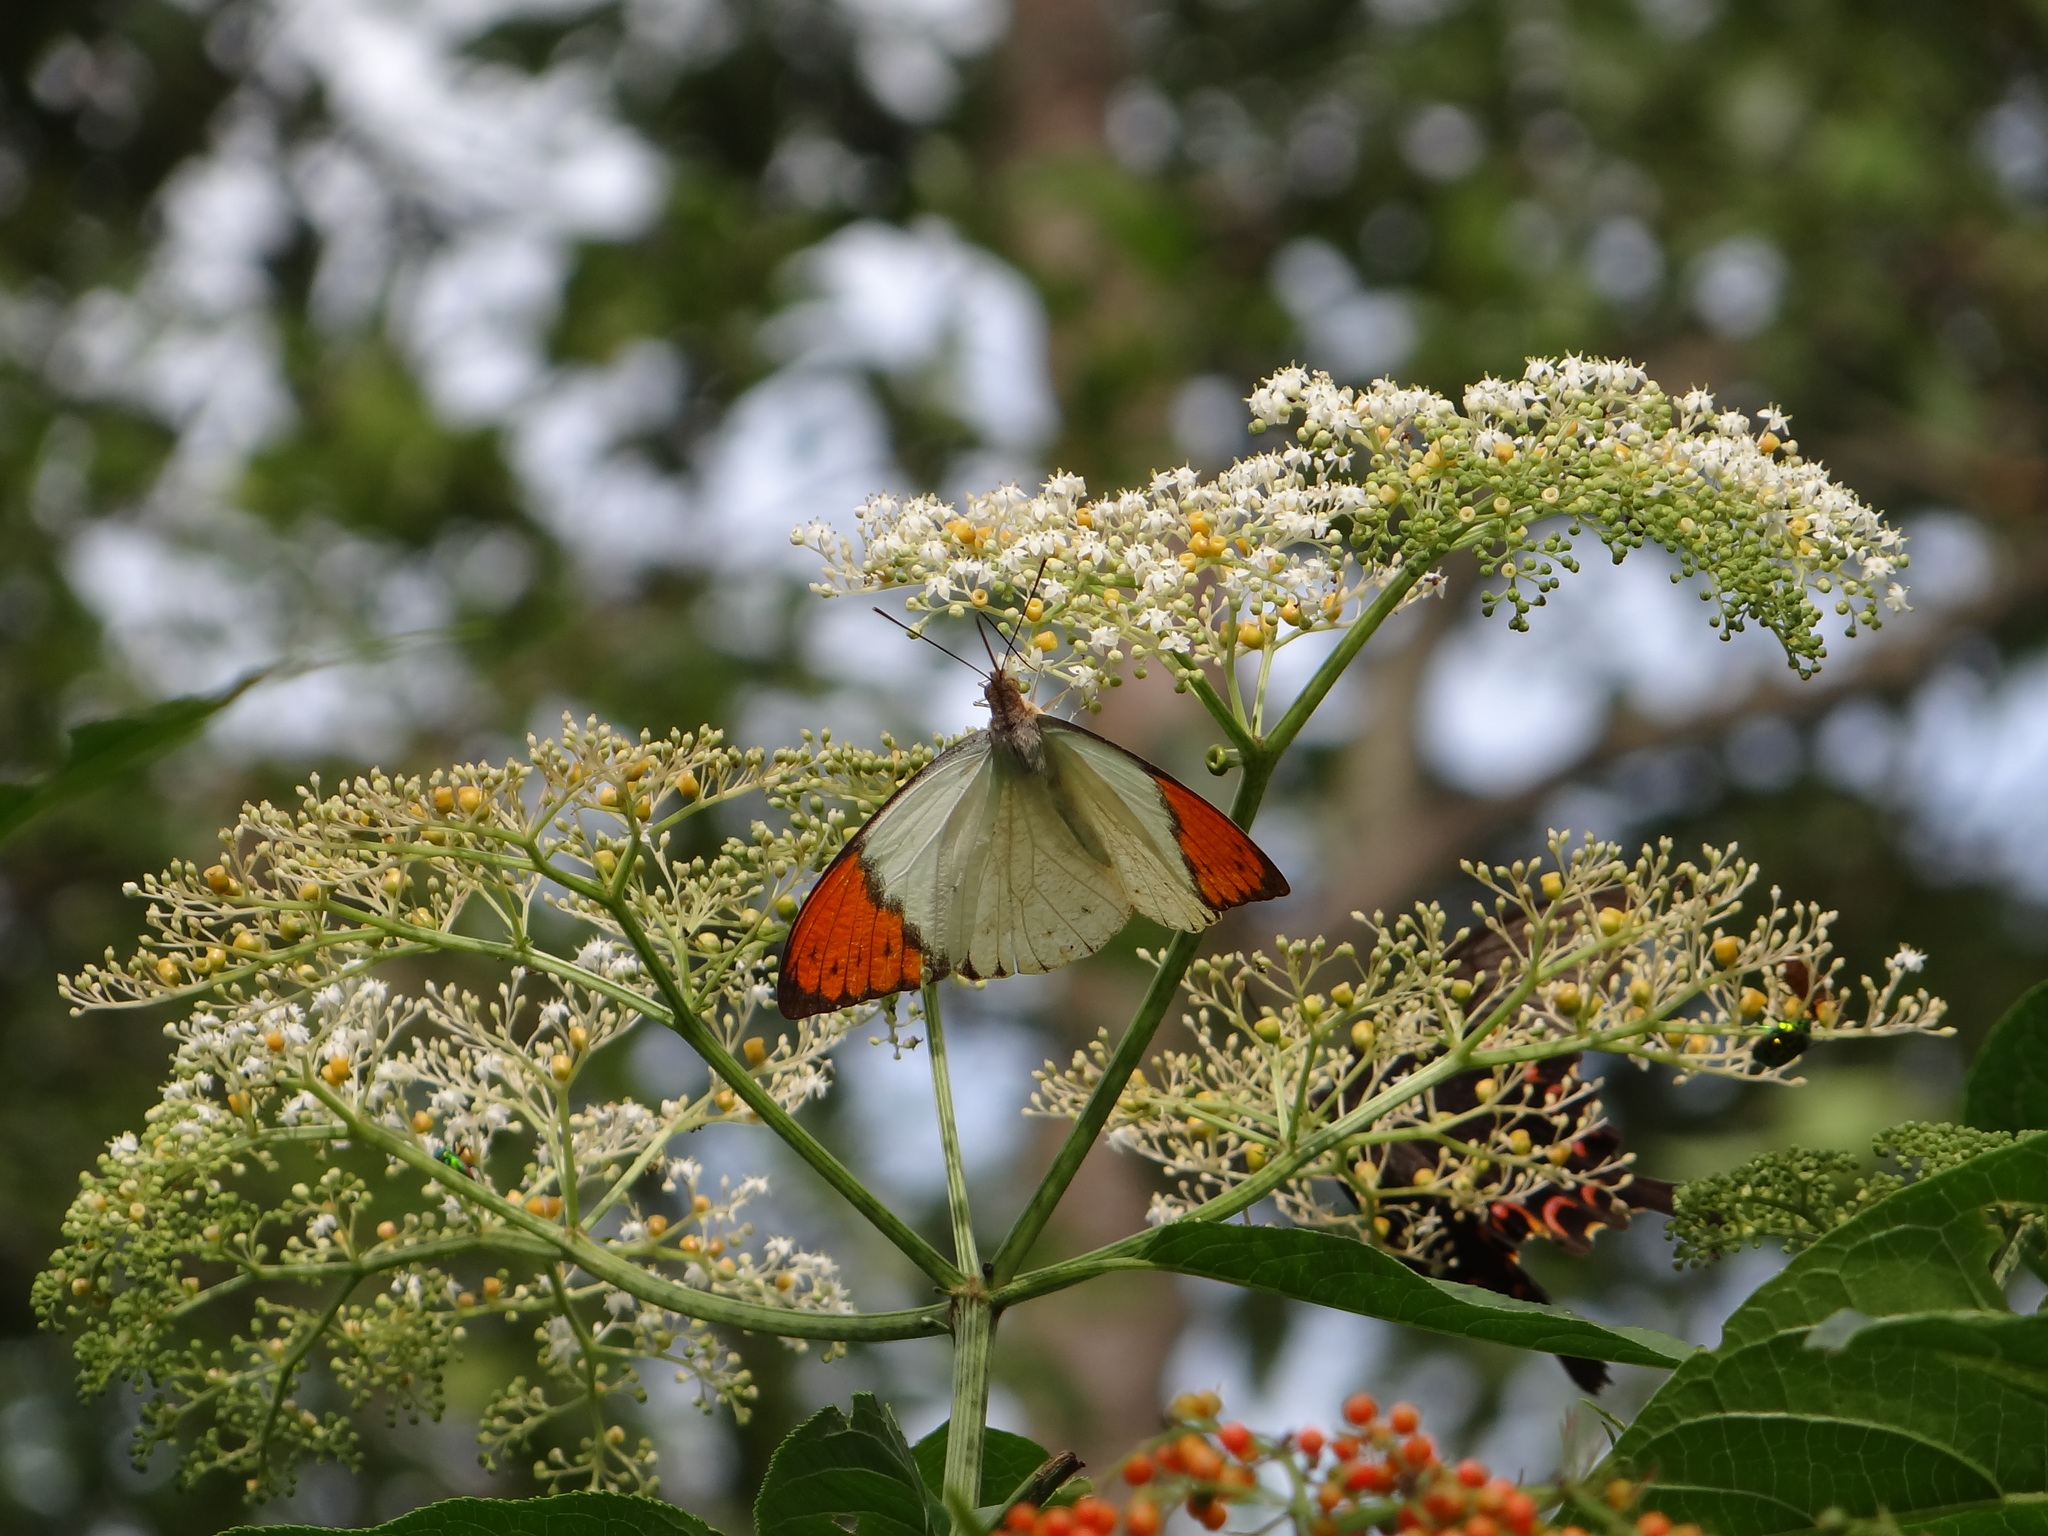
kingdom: Animalia
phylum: Arthropoda
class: Insecta
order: Lepidoptera
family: Pieridae
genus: Hebomoia
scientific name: Hebomoia glaucippe
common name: Great orange tip
